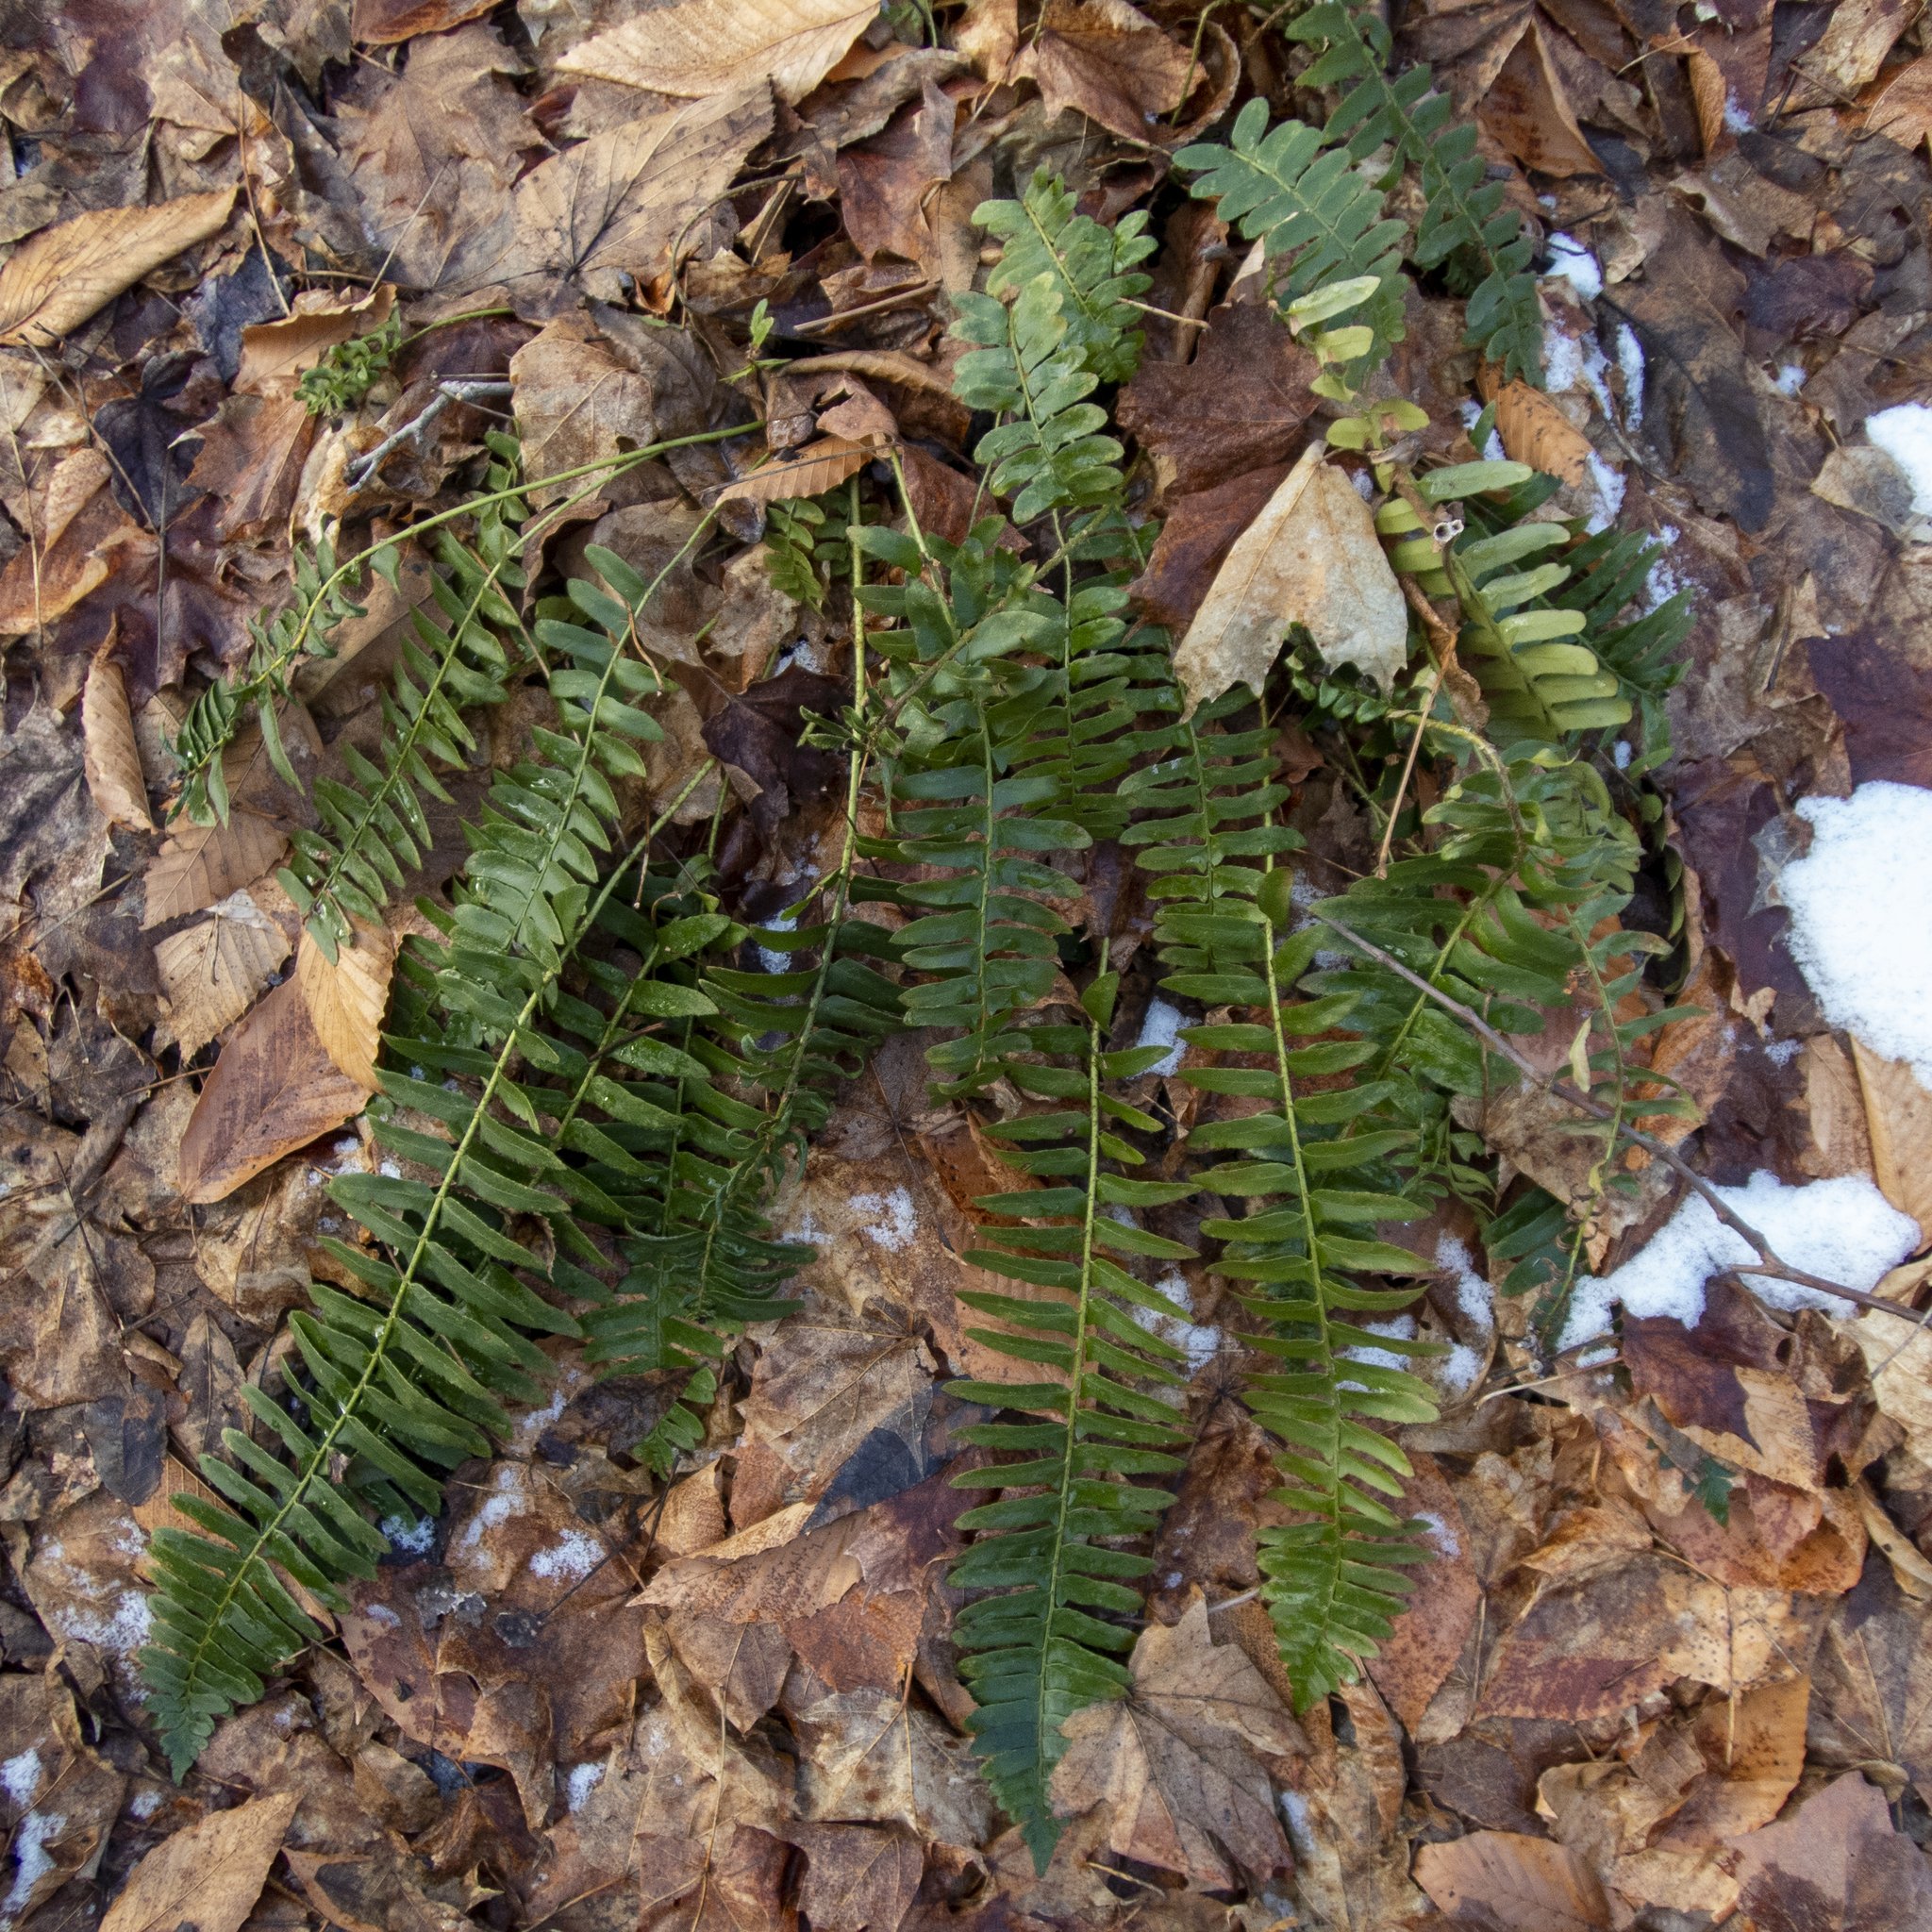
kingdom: Plantae
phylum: Tracheophyta
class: Polypodiopsida
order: Polypodiales
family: Dryopteridaceae
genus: Polystichum
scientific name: Polystichum acrostichoides
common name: Christmas fern
